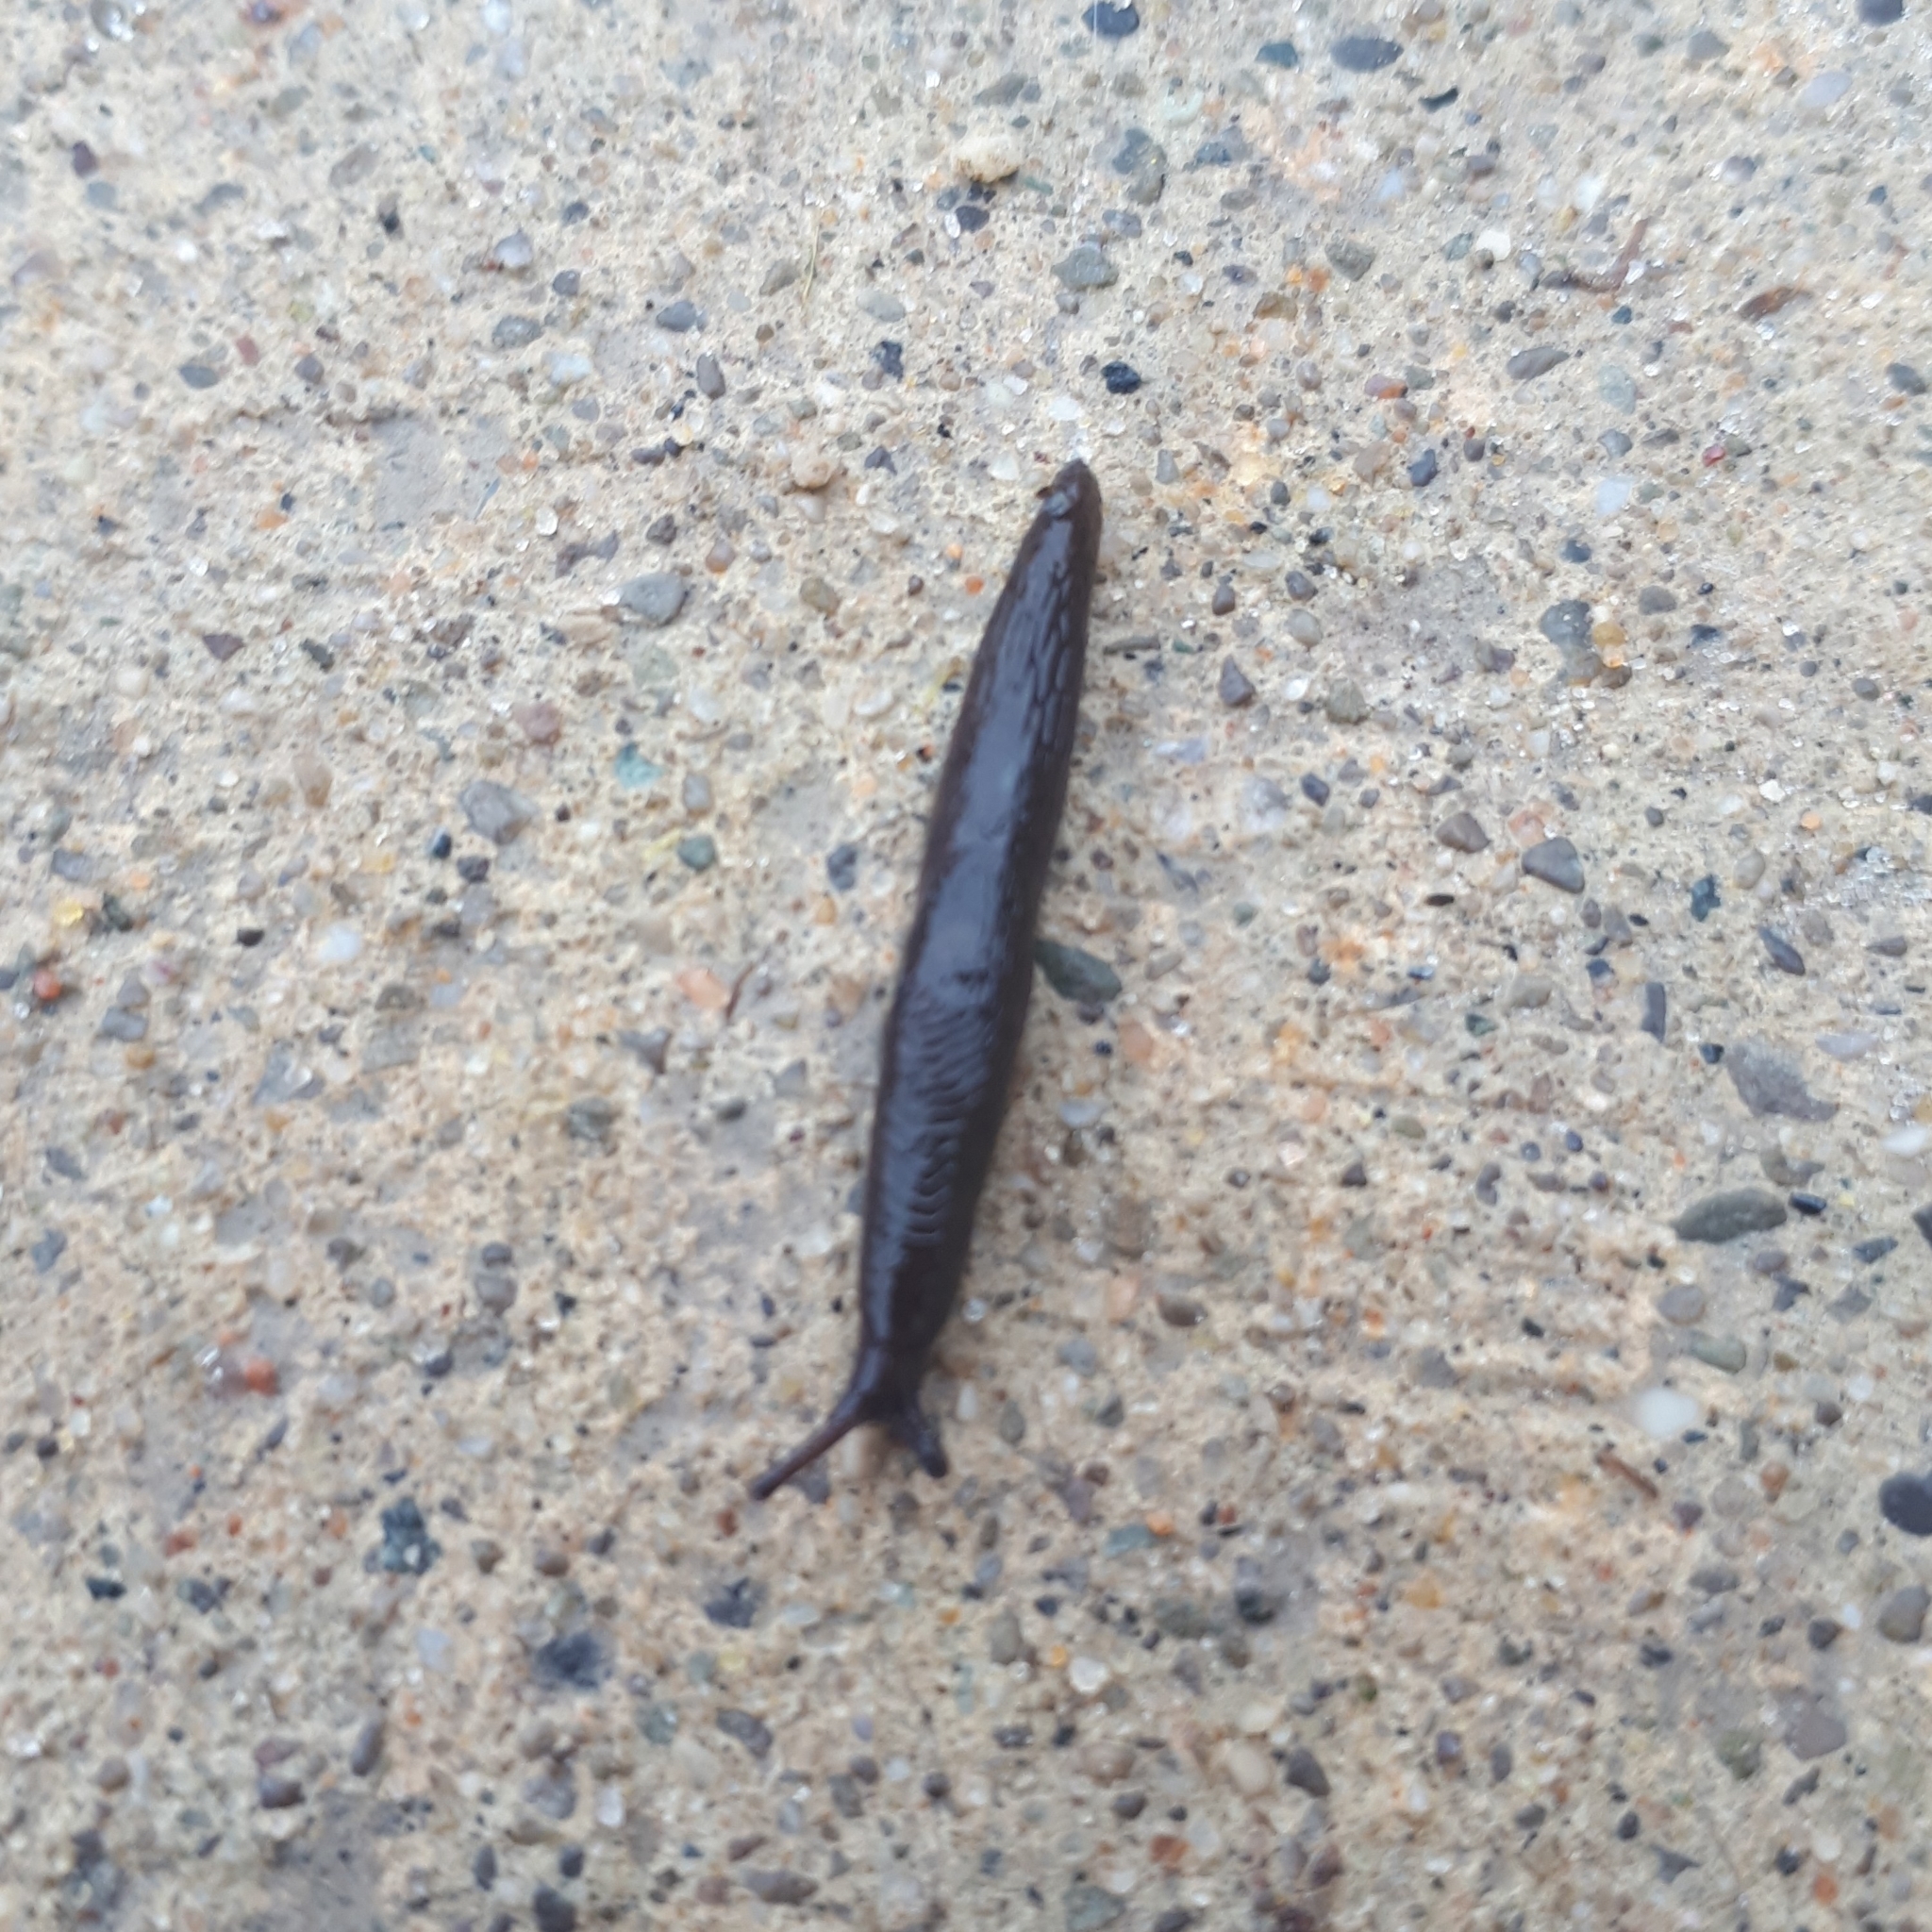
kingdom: Animalia
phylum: Mollusca
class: Gastropoda
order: Stylommatophora
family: Agriolimacidae
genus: Deroceras
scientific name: Deroceras laeve
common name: Marsh slug
